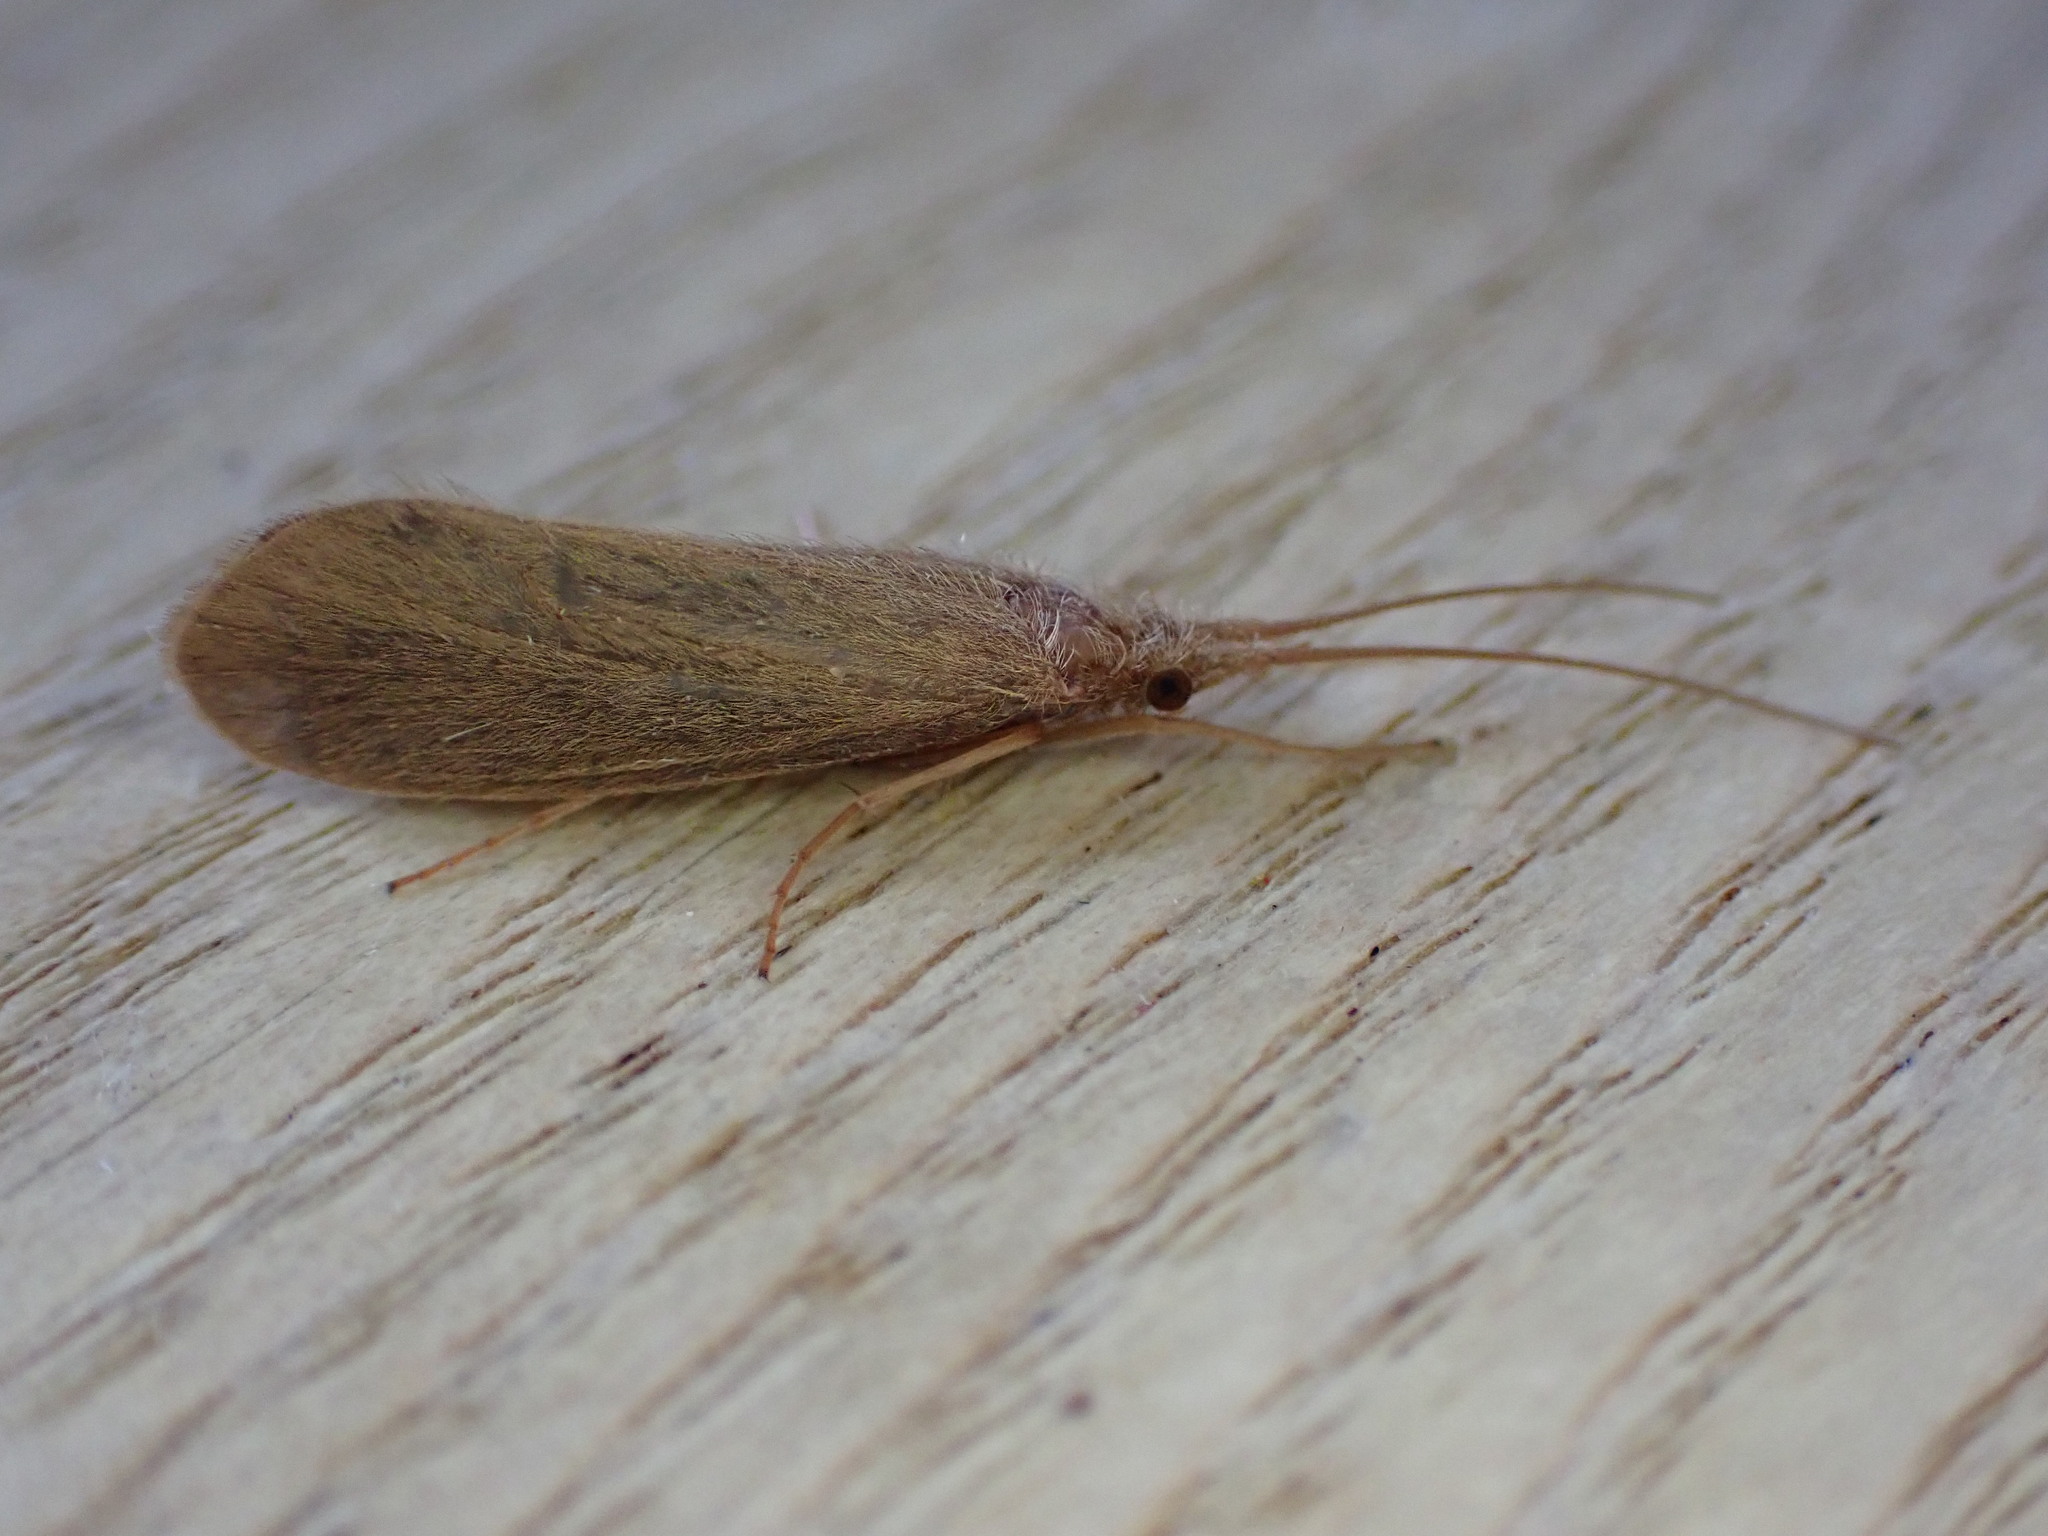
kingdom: Animalia
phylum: Arthropoda
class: Insecta
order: Trichoptera
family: Goeridae
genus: Goera
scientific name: Goera pilosa
